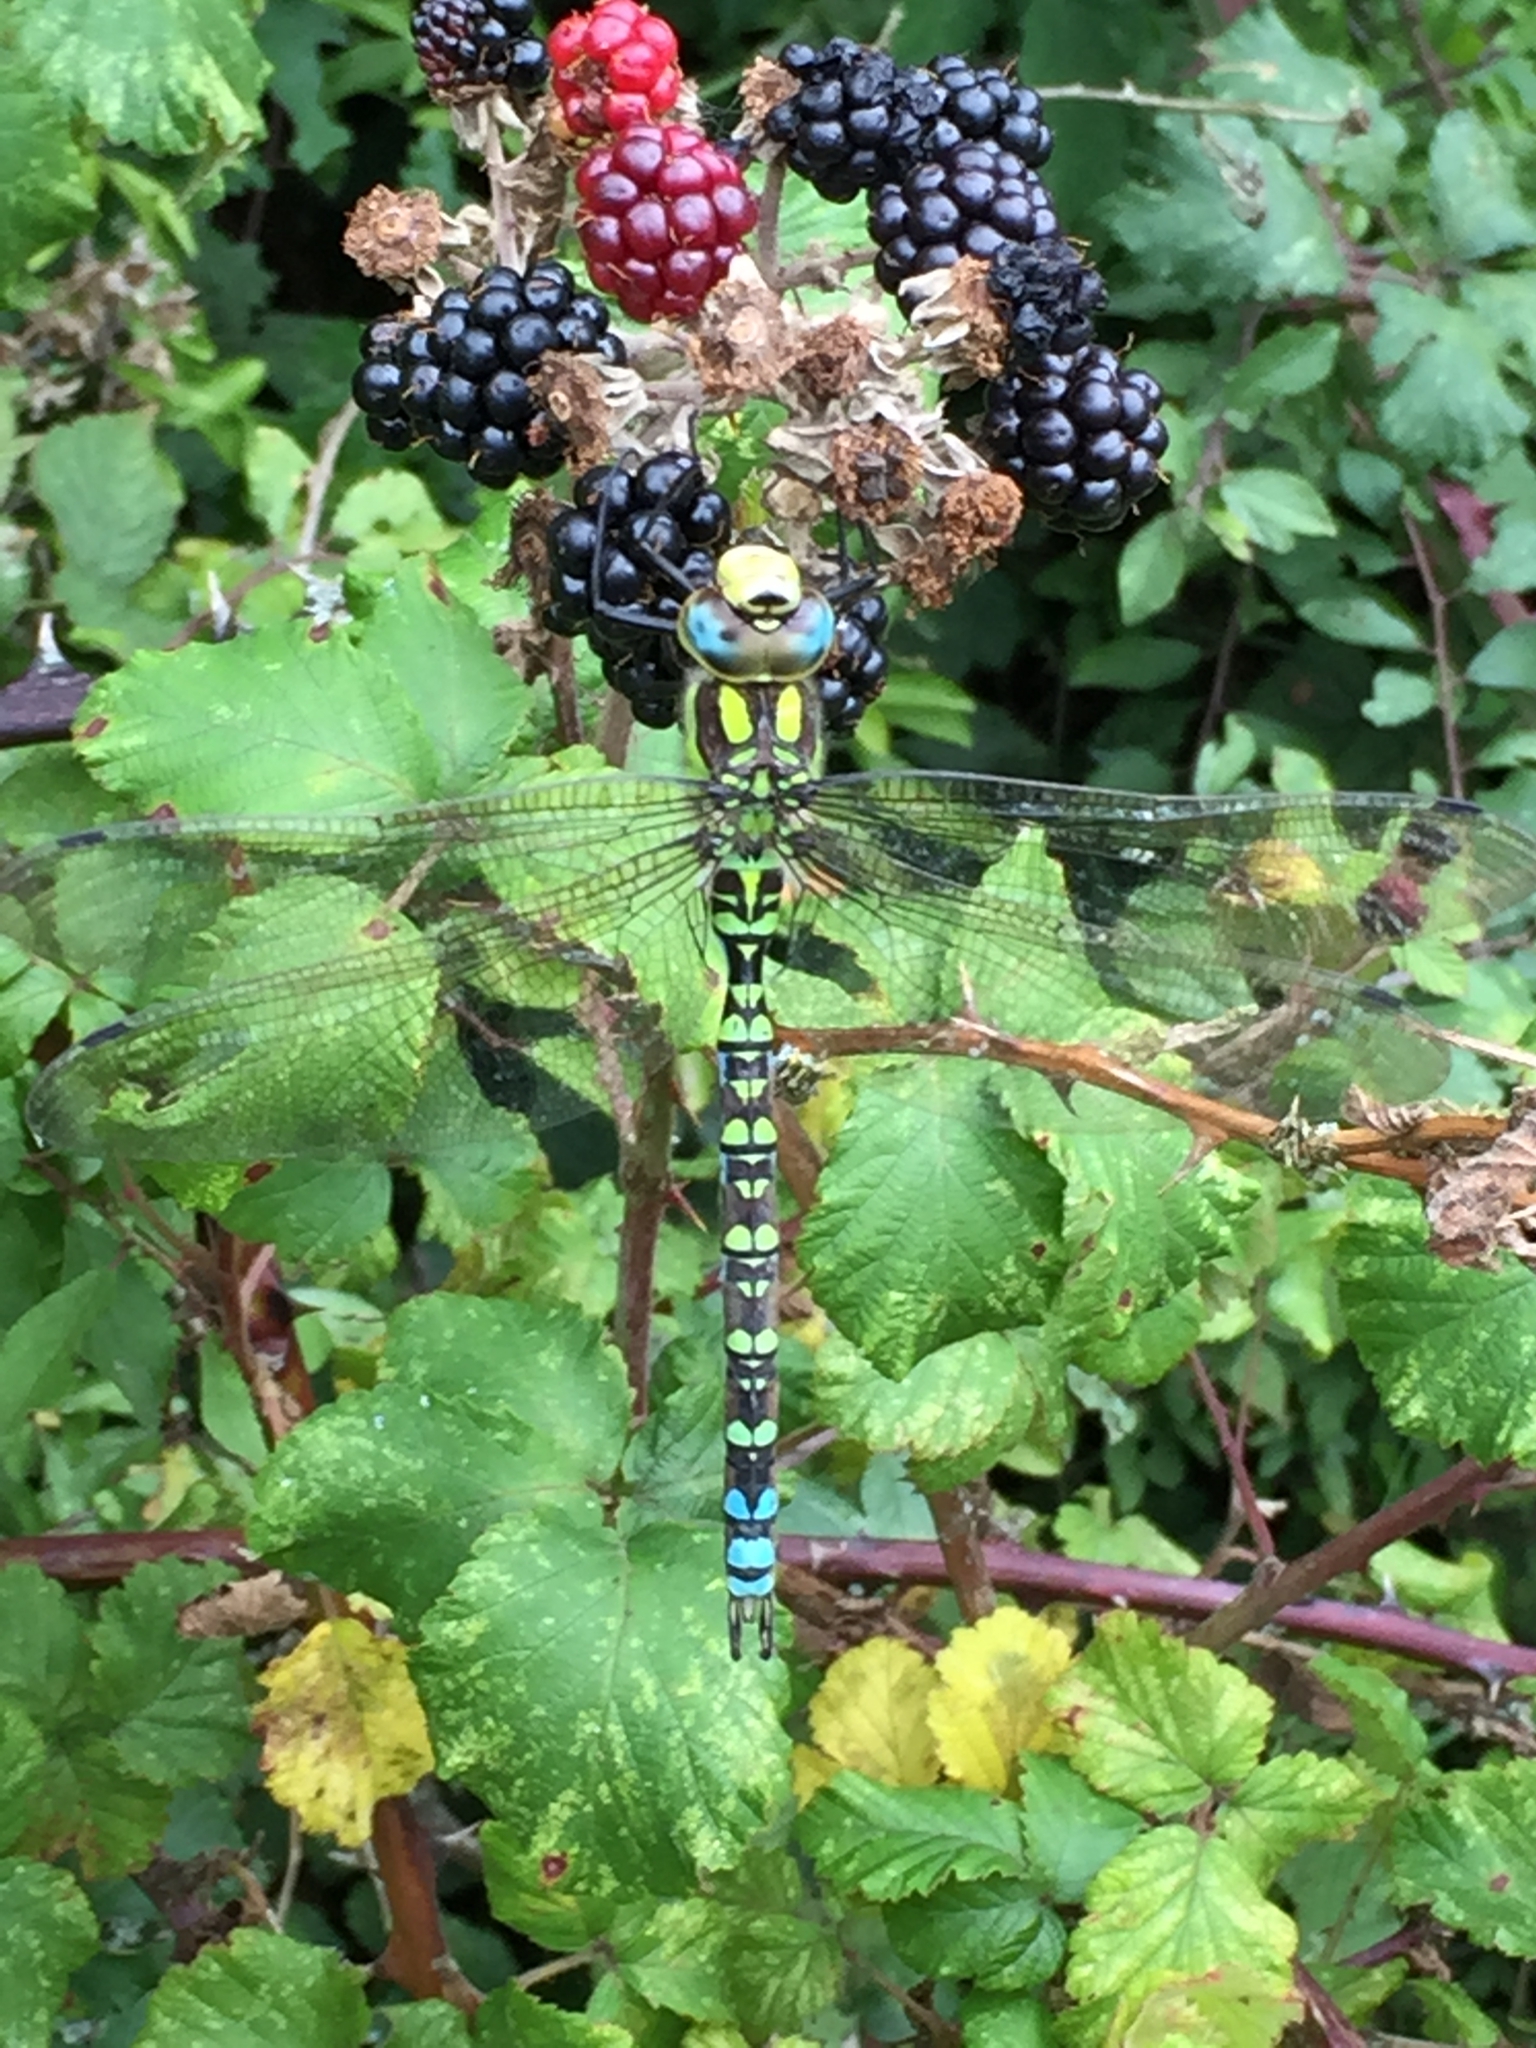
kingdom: Animalia
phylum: Arthropoda
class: Insecta
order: Odonata
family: Aeshnidae
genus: Aeshna
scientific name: Aeshna cyanea
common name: Southern hawker
